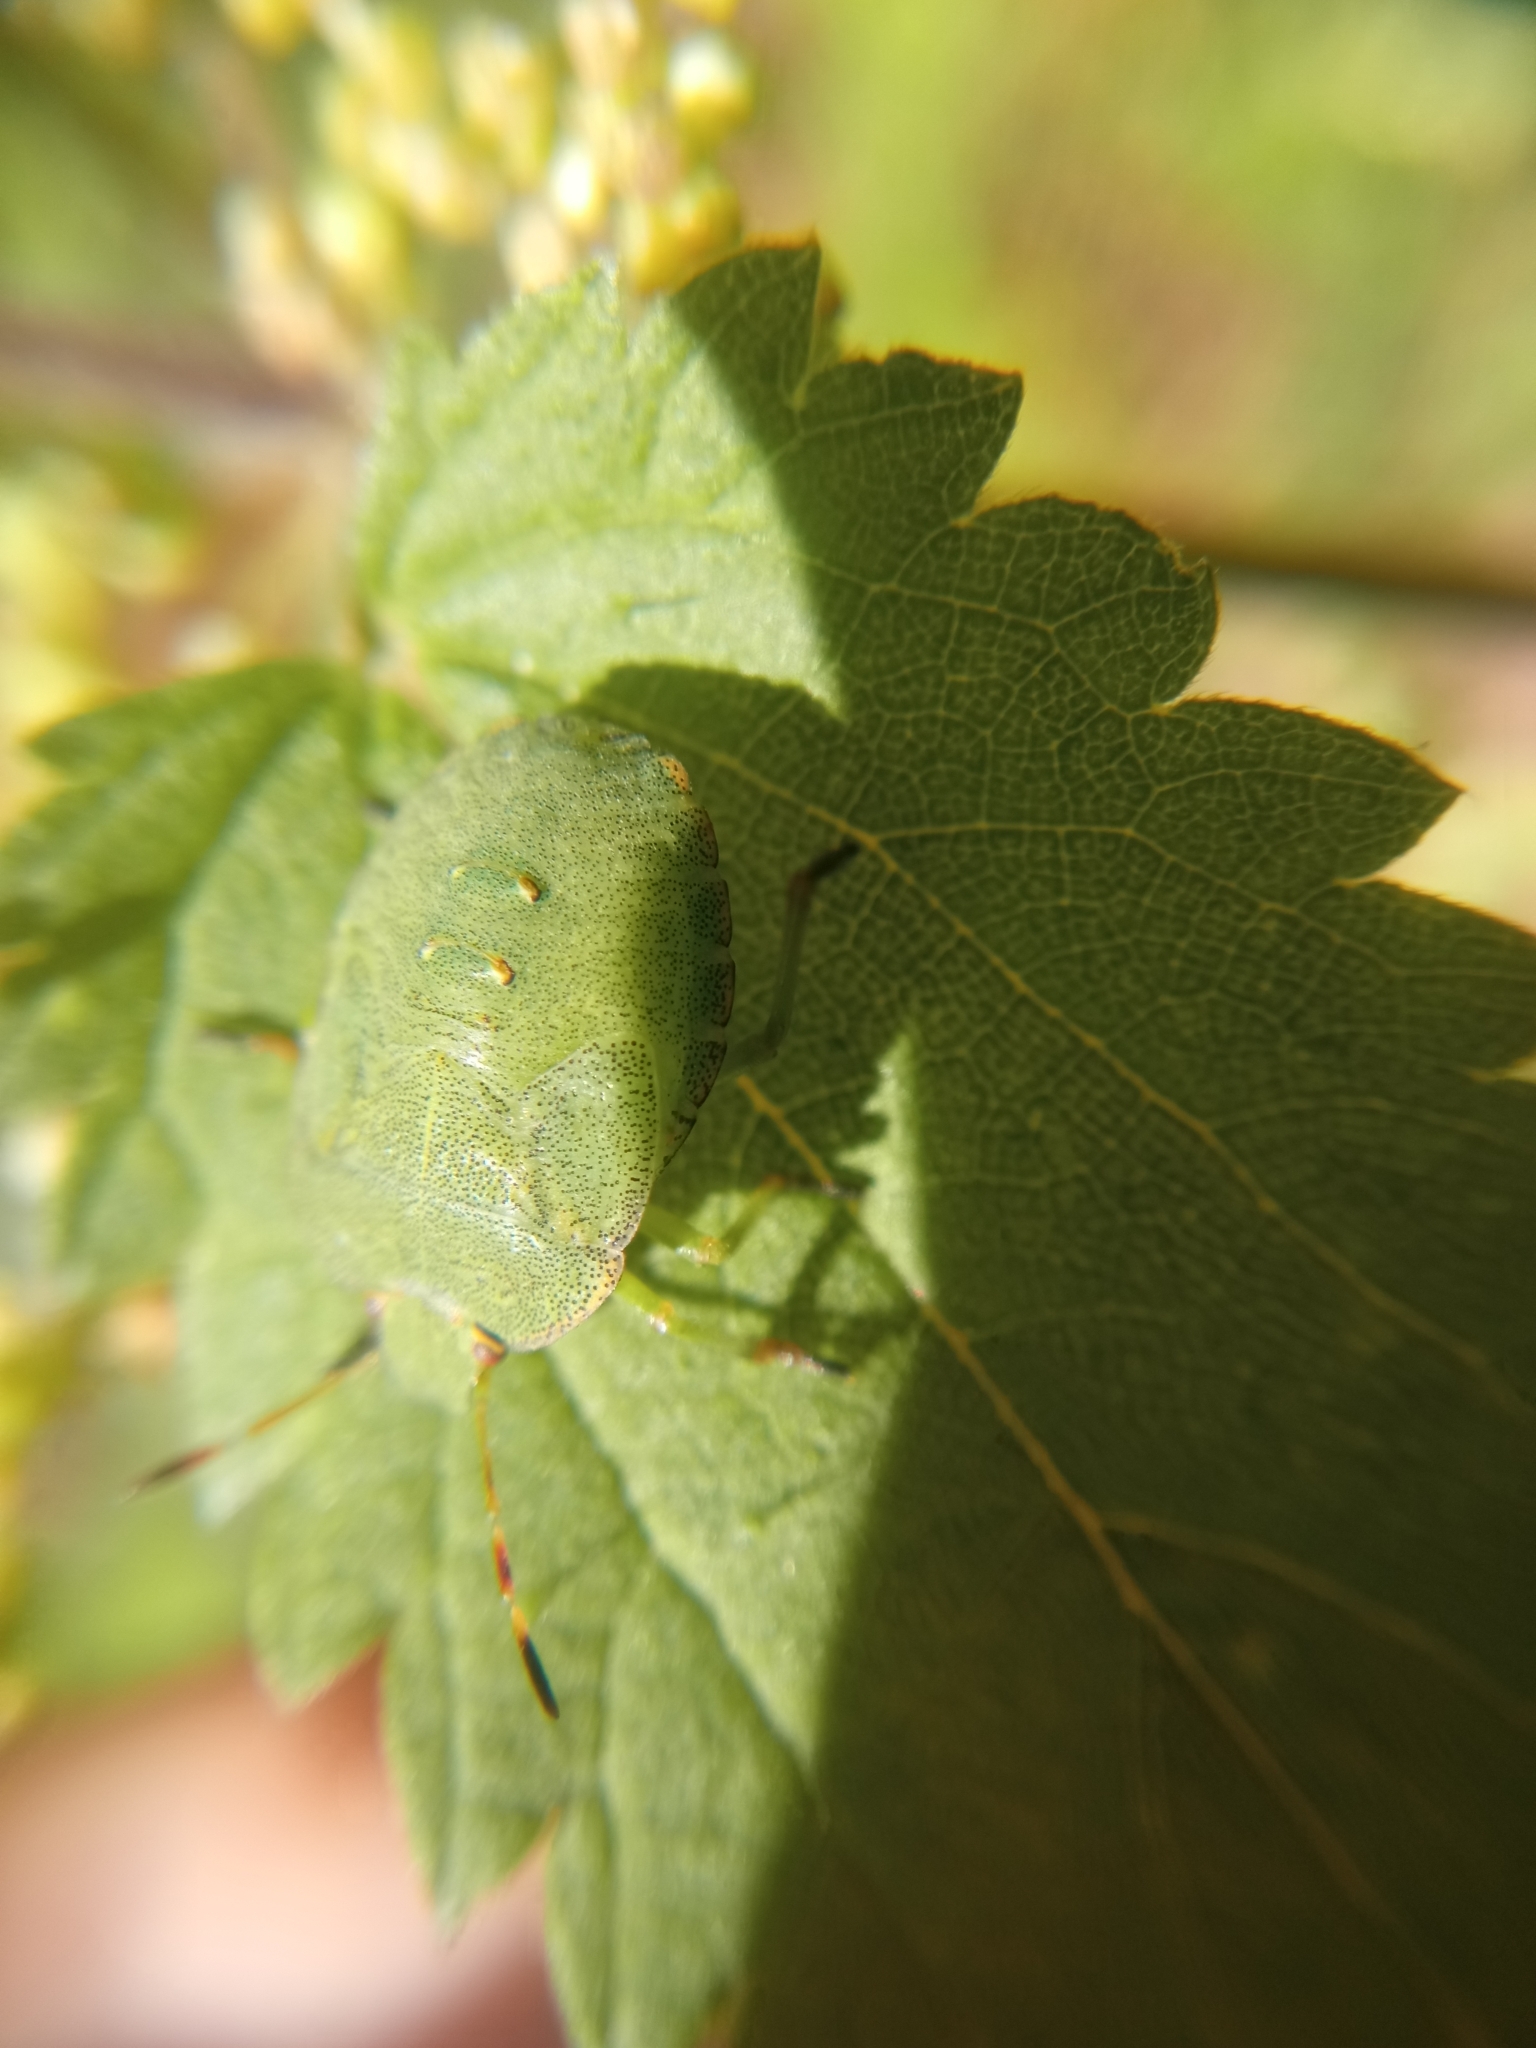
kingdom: Animalia
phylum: Arthropoda
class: Insecta
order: Hemiptera
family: Pentatomidae
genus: Palomena
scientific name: Palomena prasina
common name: Green shieldbug
